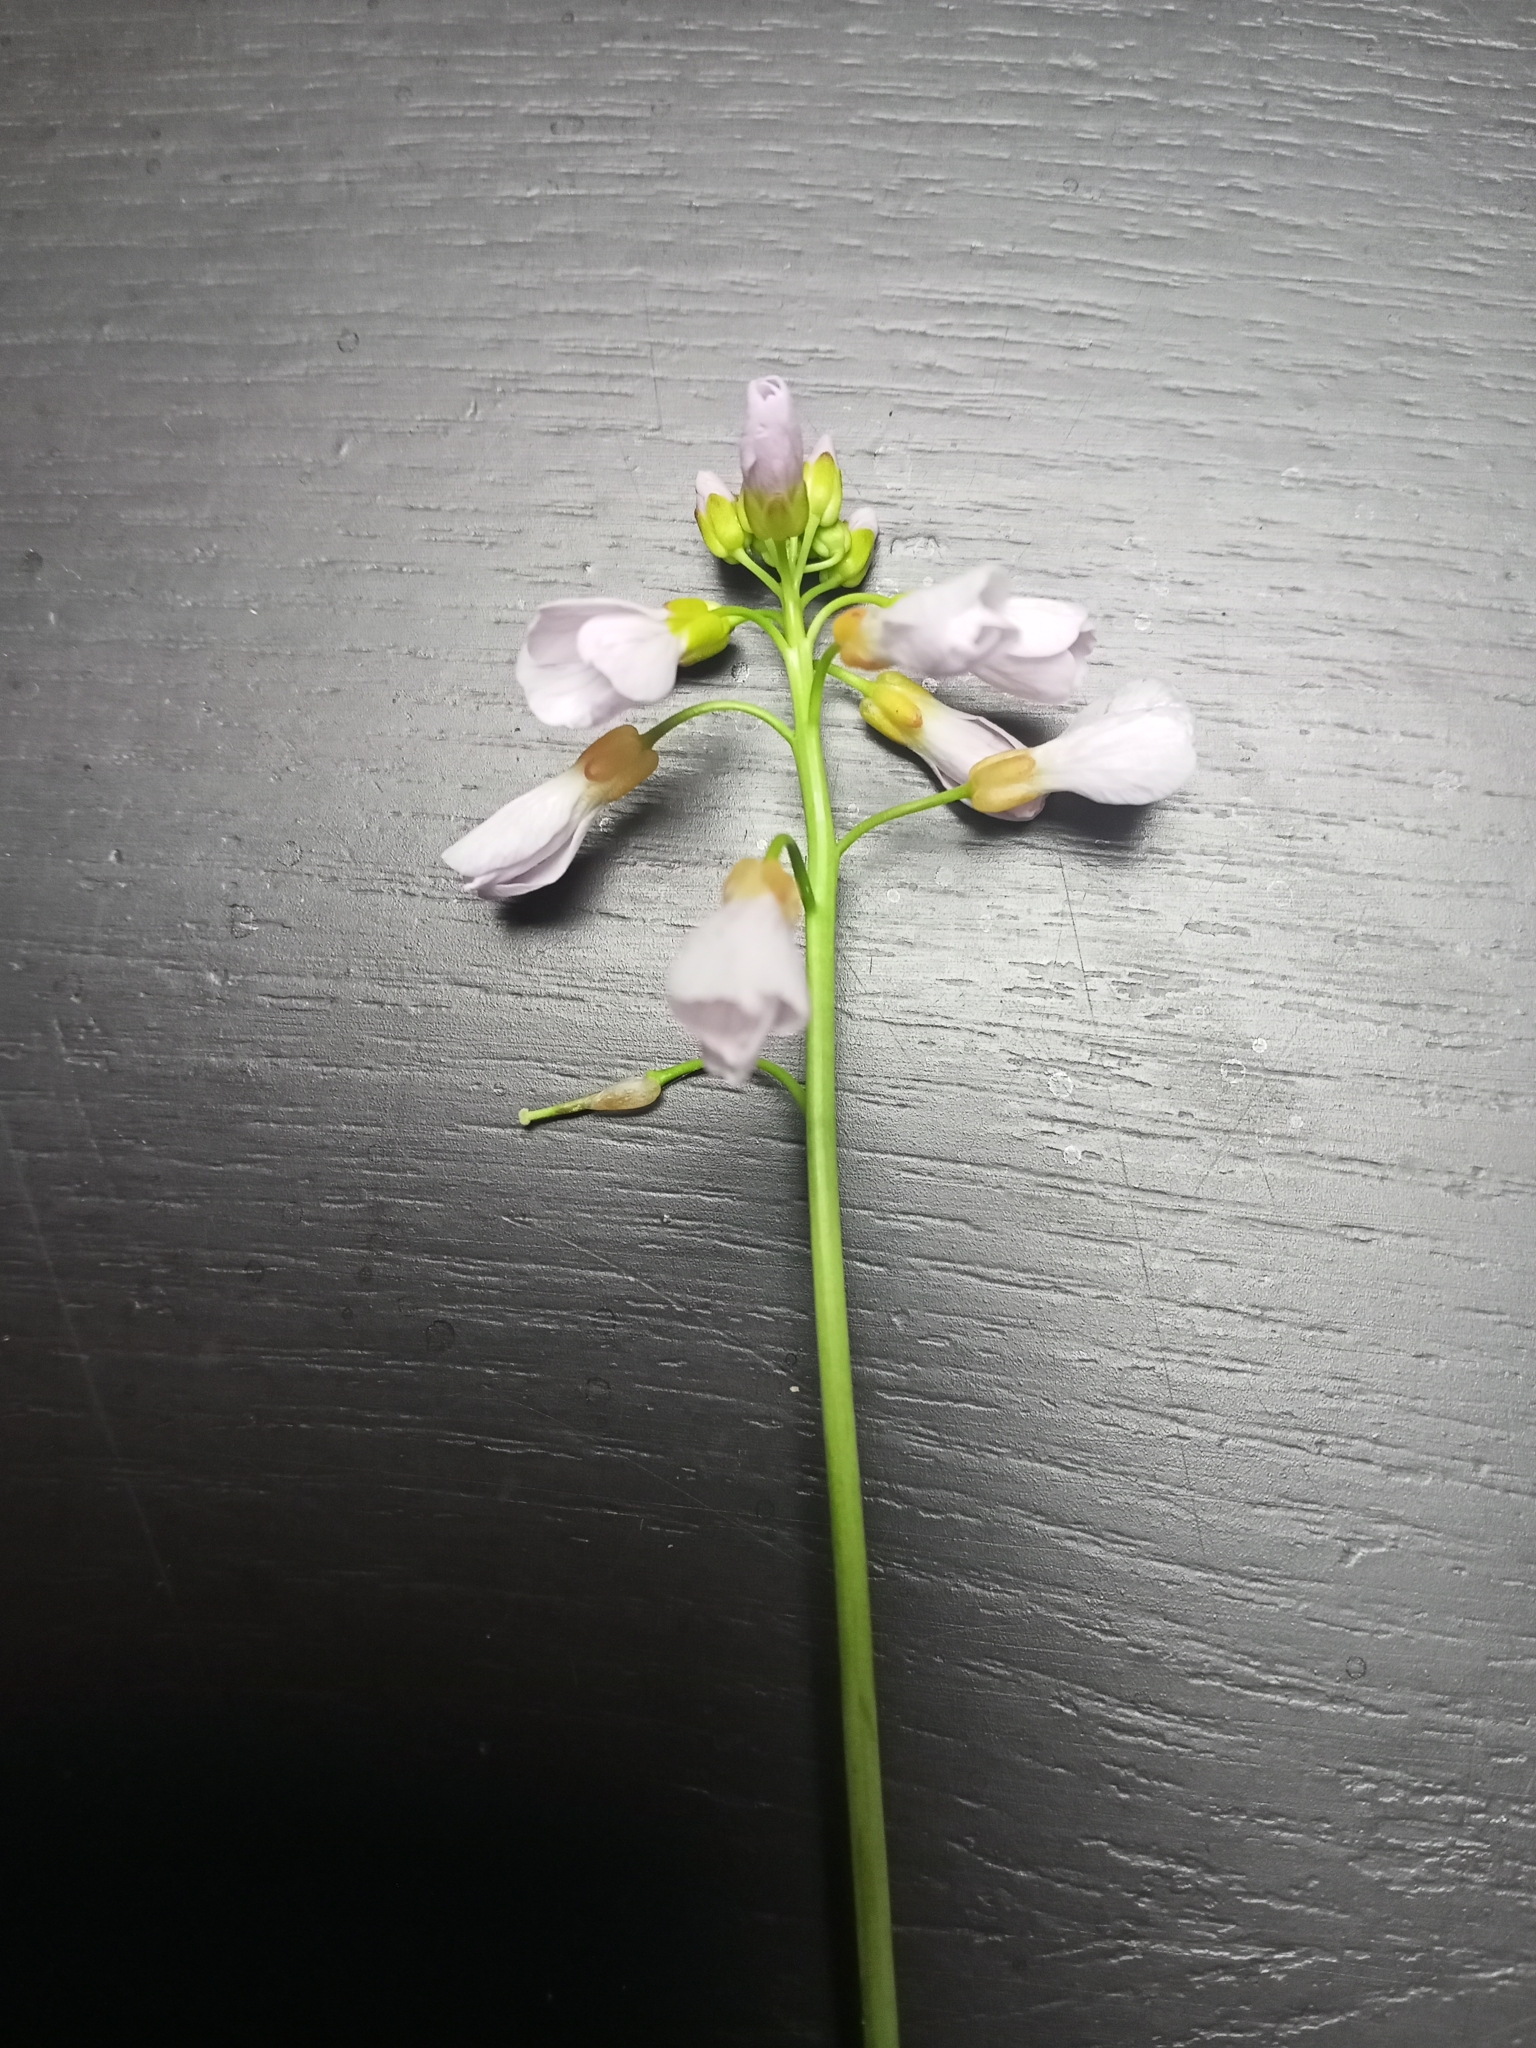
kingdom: Plantae
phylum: Tracheophyta
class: Magnoliopsida
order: Brassicales
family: Brassicaceae
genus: Cardamine
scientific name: Cardamine pratensis
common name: Cuckoo flower
